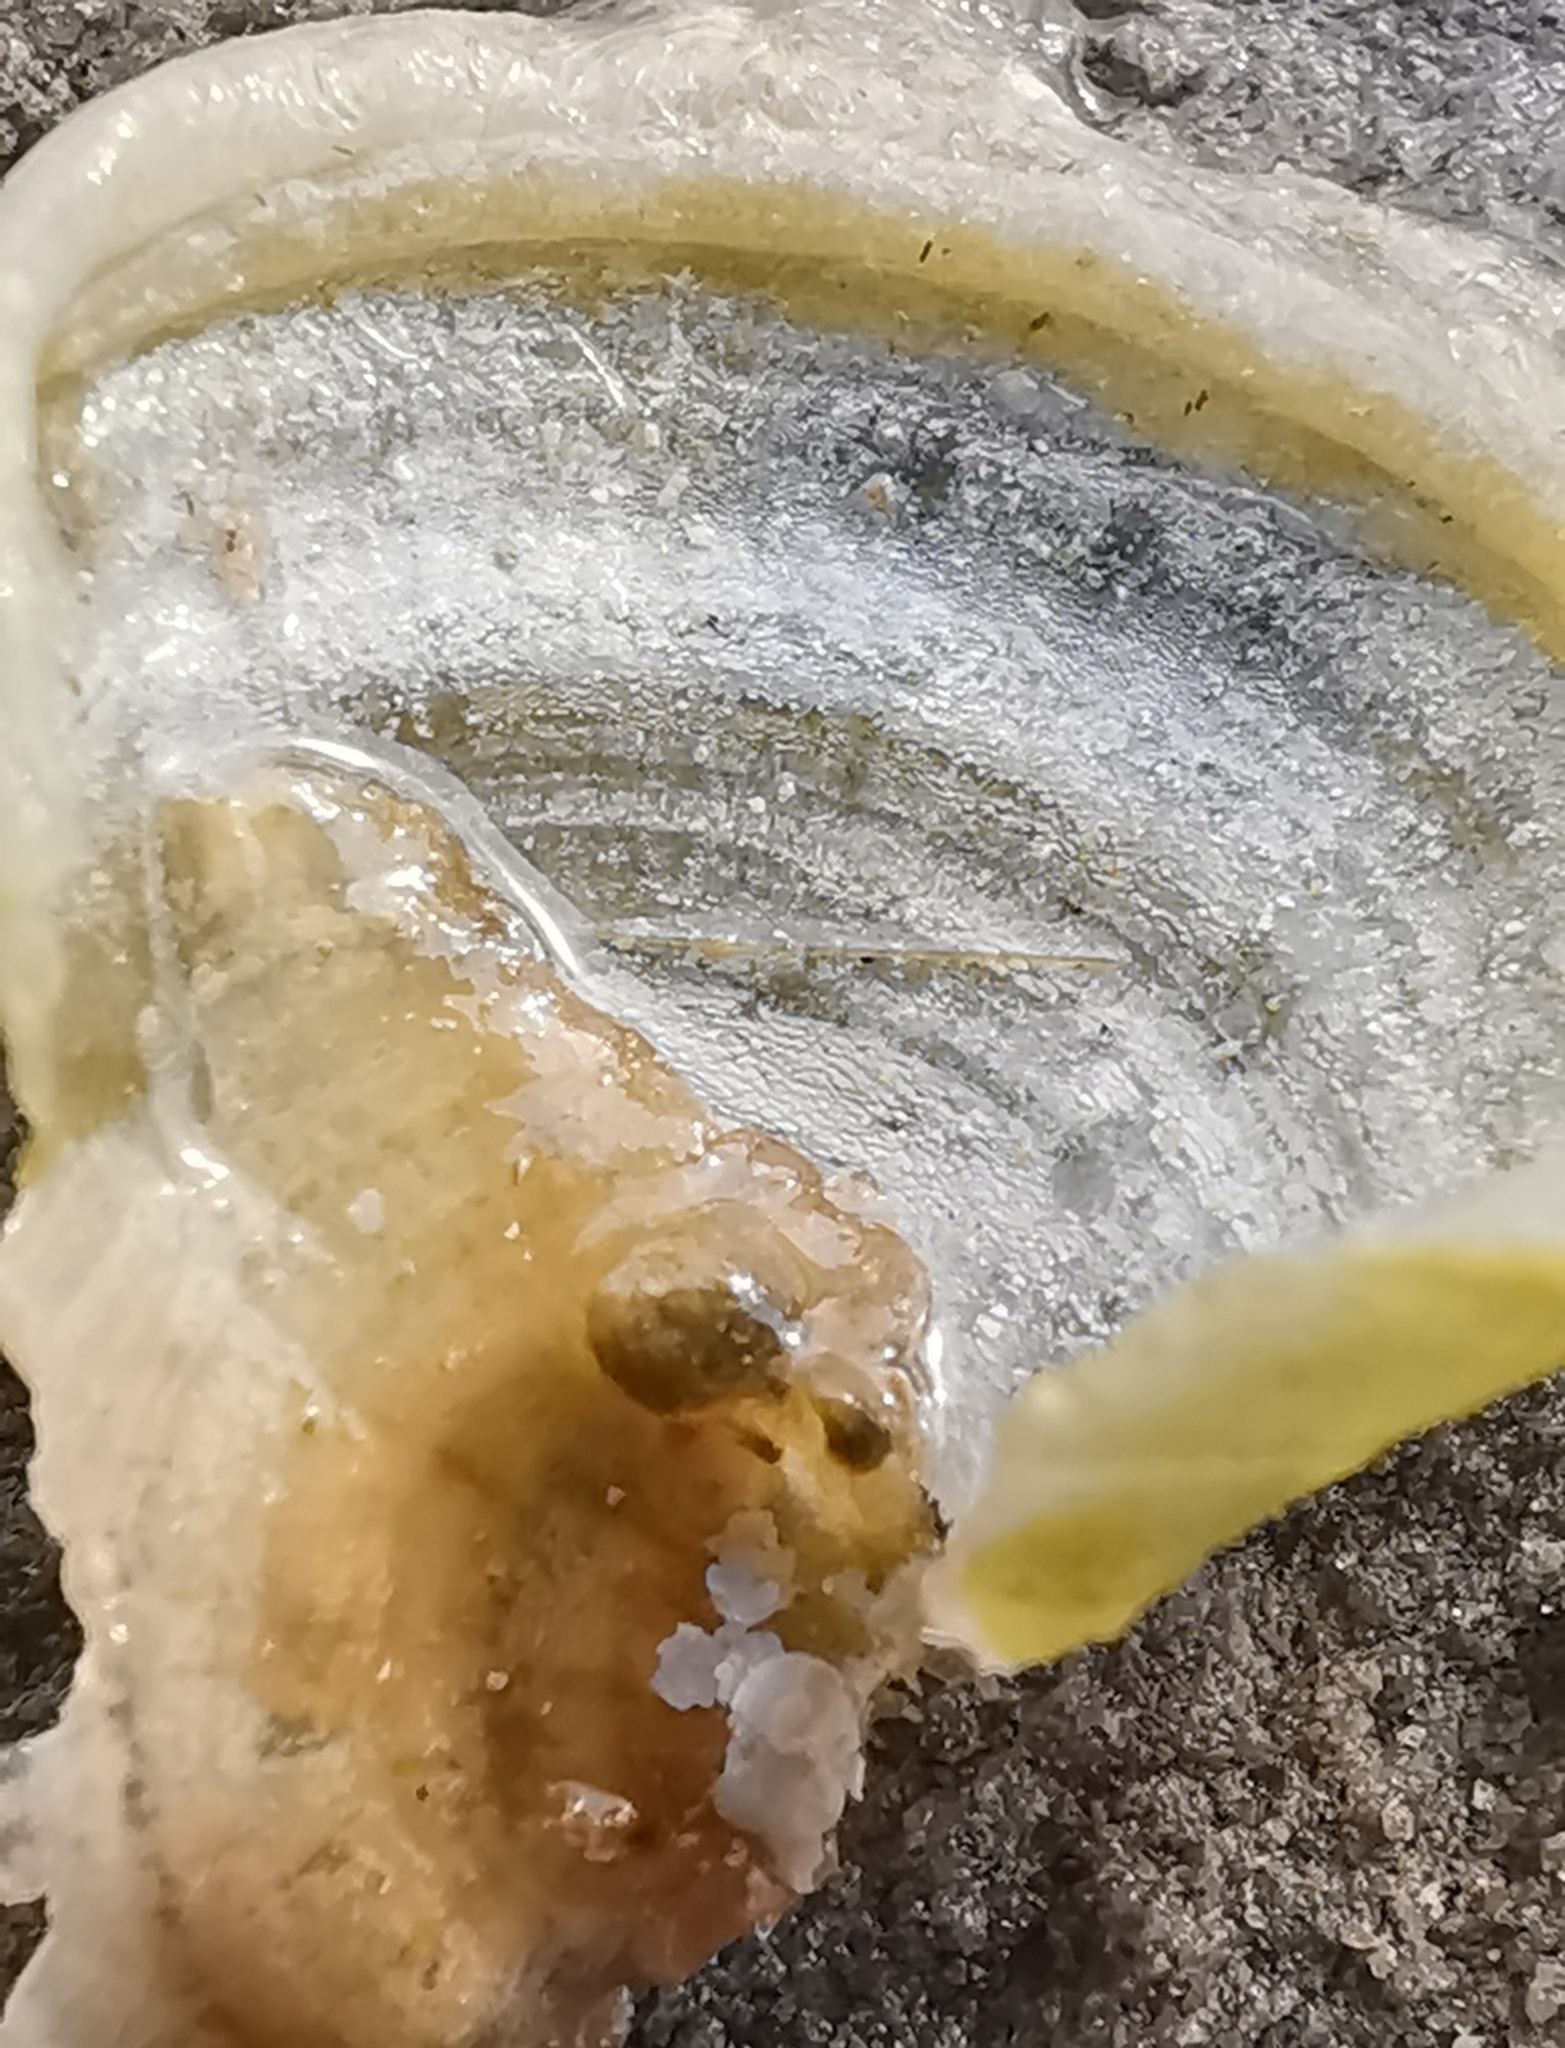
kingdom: Chromista
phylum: Ochrophyta
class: Phaeophyceae
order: Dictyotales
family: Dictyotaceae
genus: Padina
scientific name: Padina pavonica
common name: Turkey feather alga
